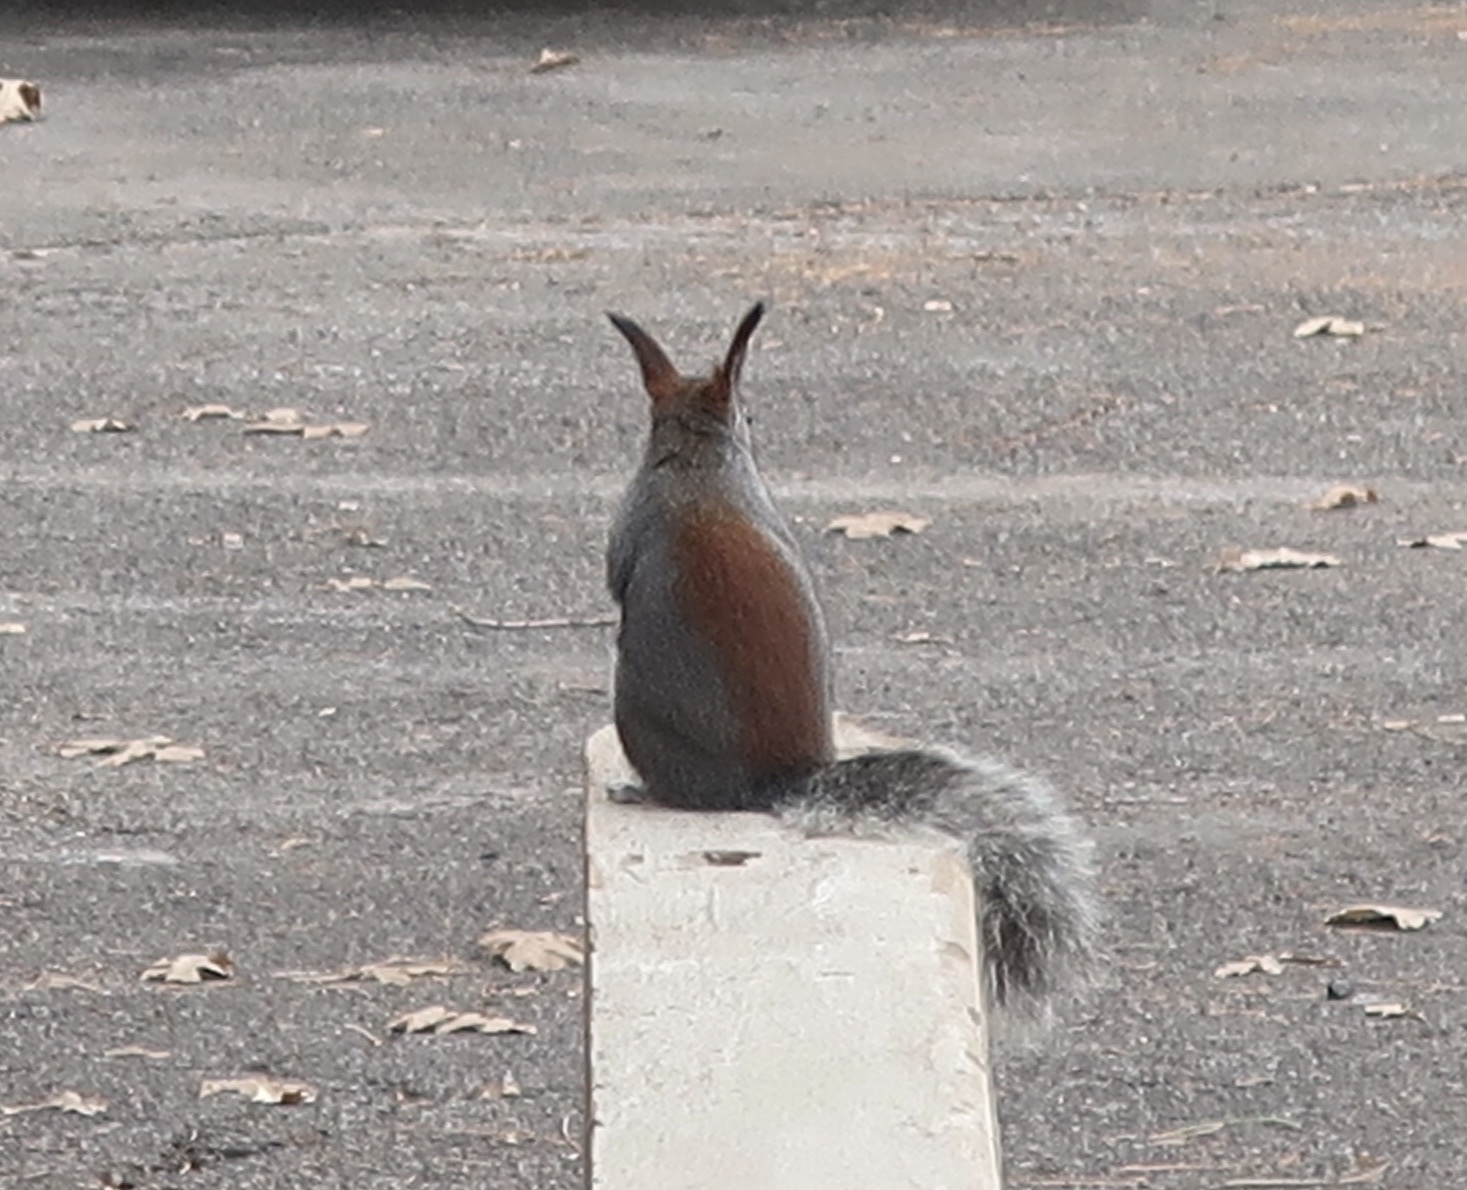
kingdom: Animalia
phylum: Chordata
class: Mammalia
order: Rodentia
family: Sciuridae
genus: Sciurus
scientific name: Sciurus aberti
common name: Abert's squirrel
